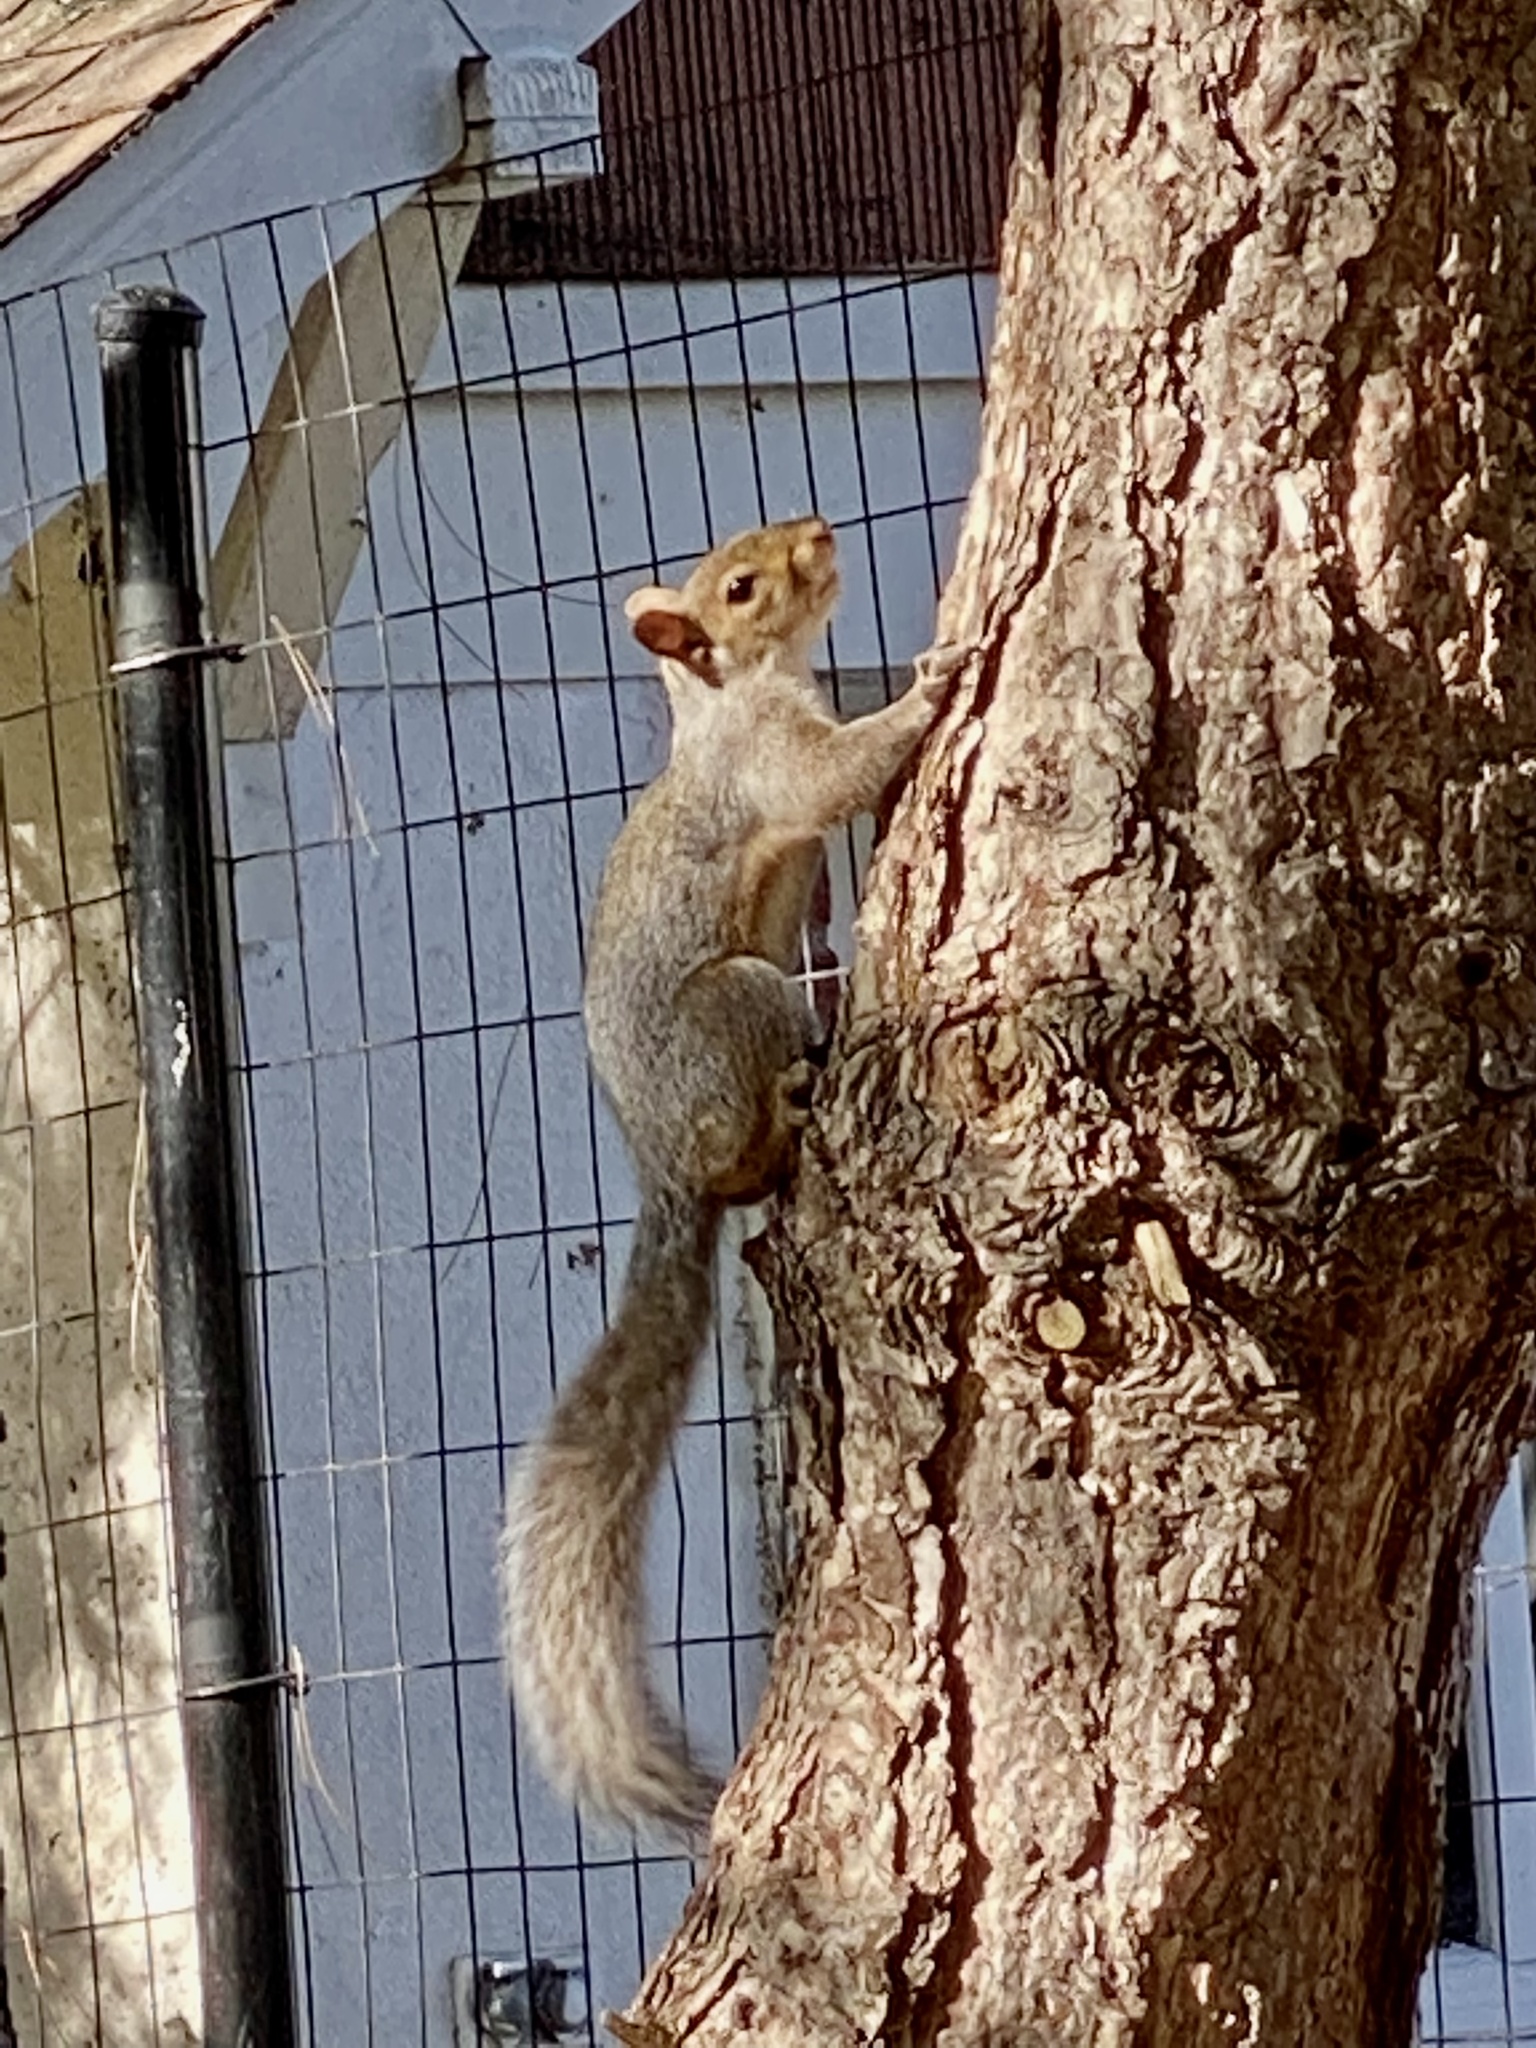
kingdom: Animalia
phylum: Chordata
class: Mammalia
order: Rodentia
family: Sciuridae
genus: Sciurus
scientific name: Sciurus carolinensis
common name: Eastern gray squirrel
